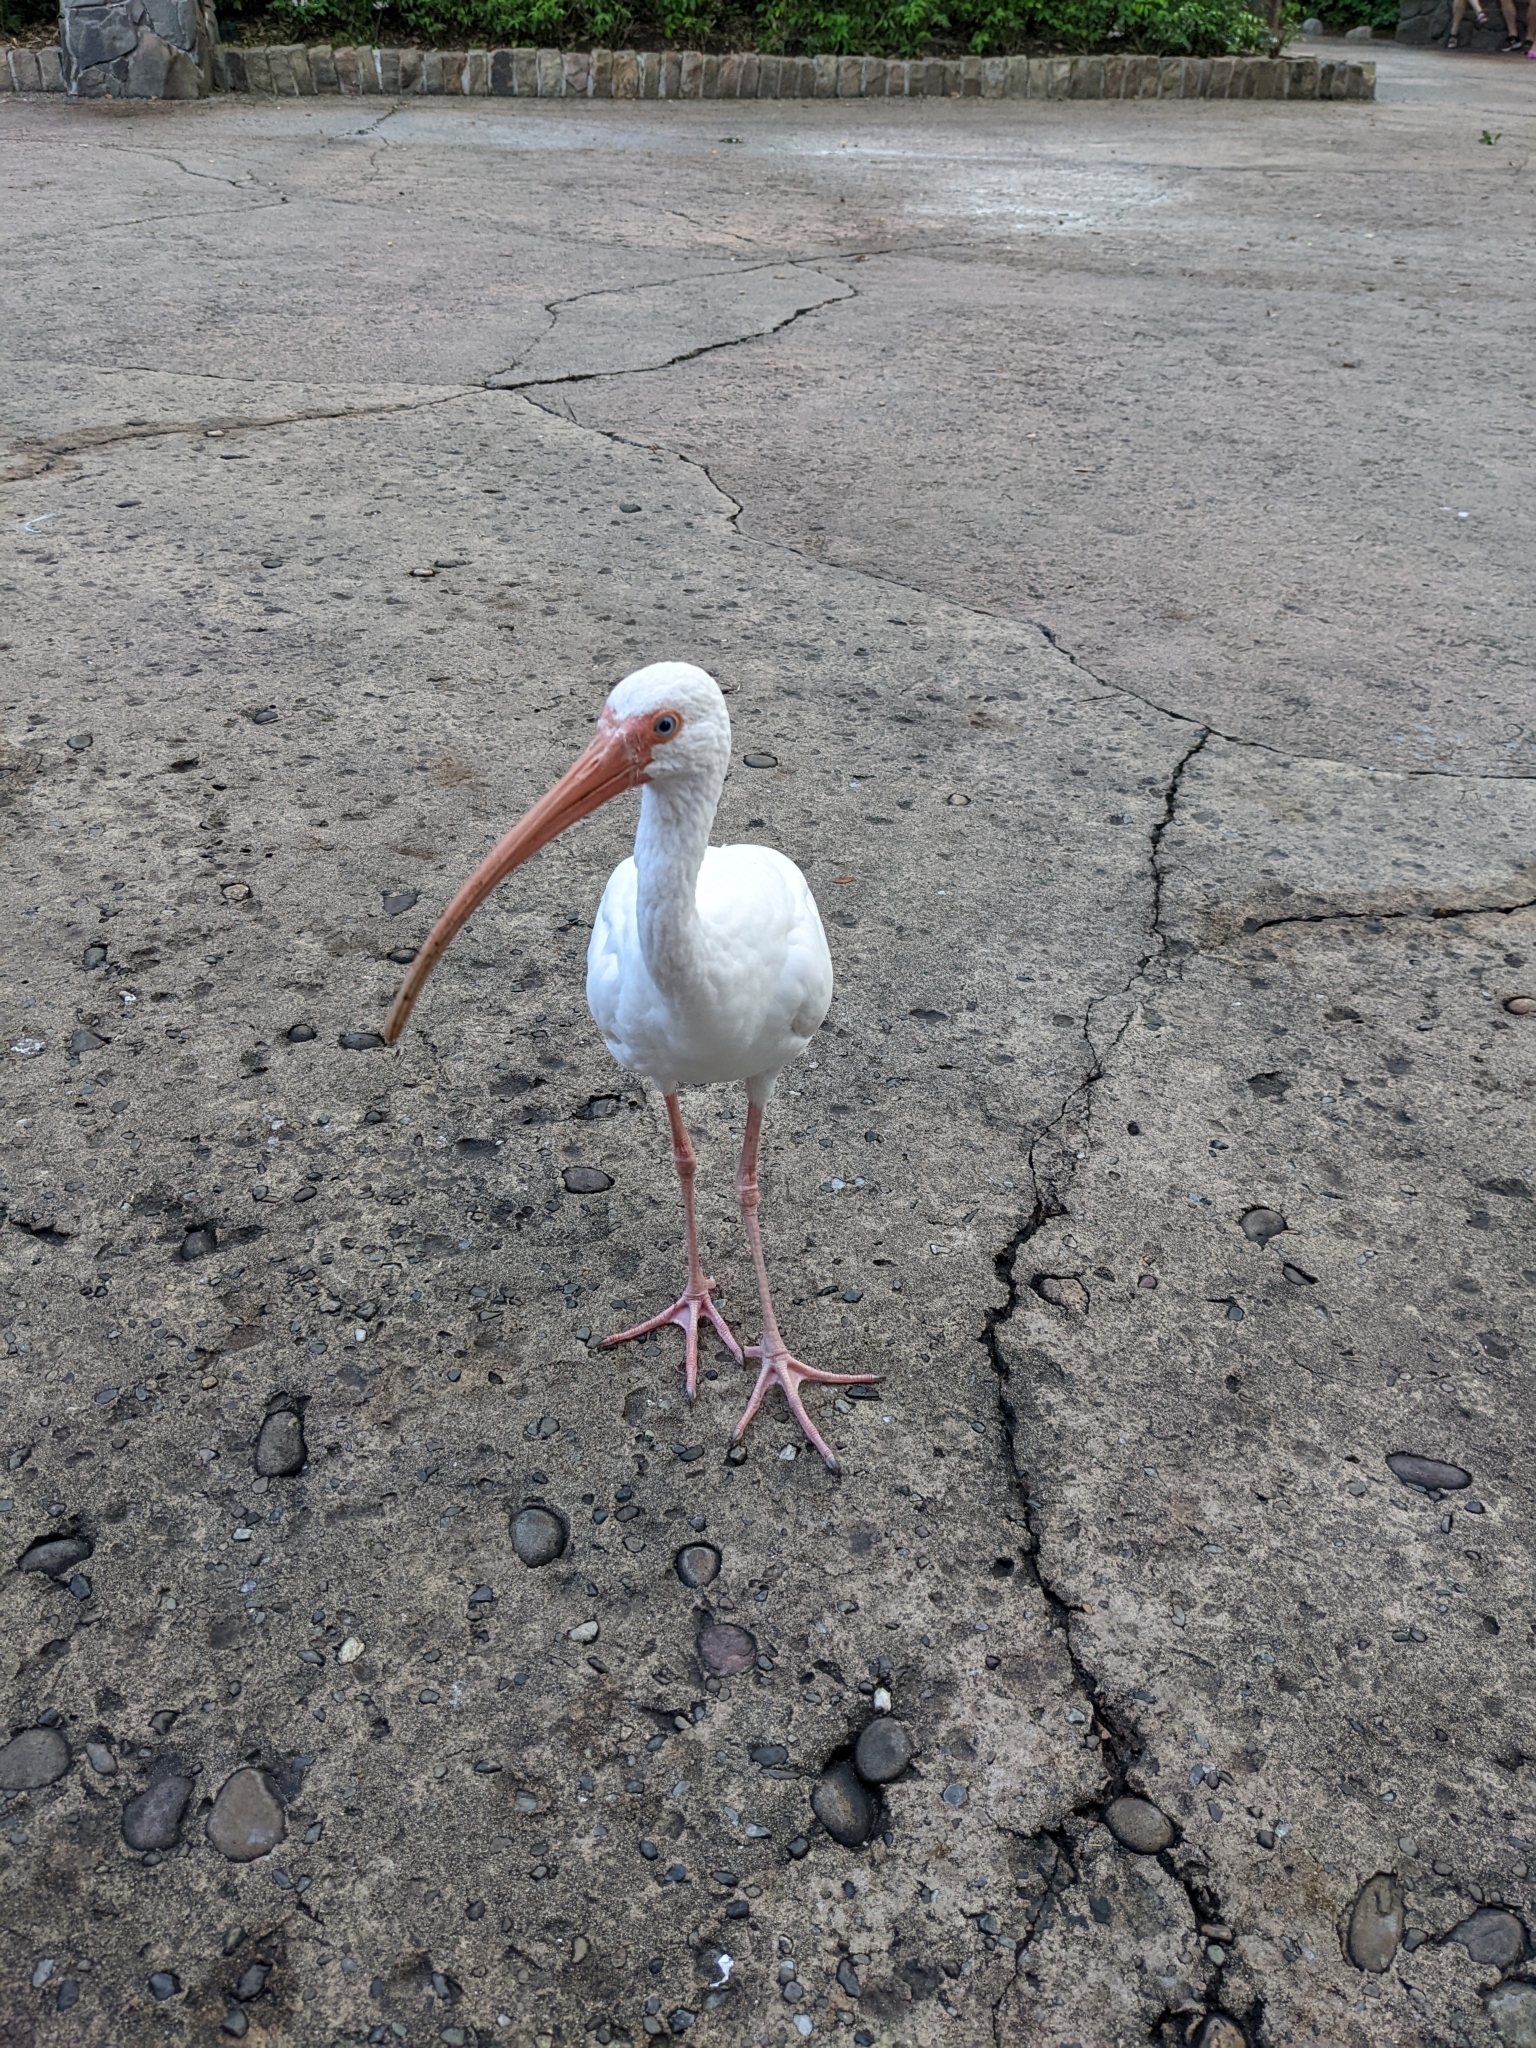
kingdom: Animalia
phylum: Chordata
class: Aves
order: Pelecaniformes
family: Threskiornithidae
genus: Eudocimus
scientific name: Eudocimus albus
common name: White ibis
